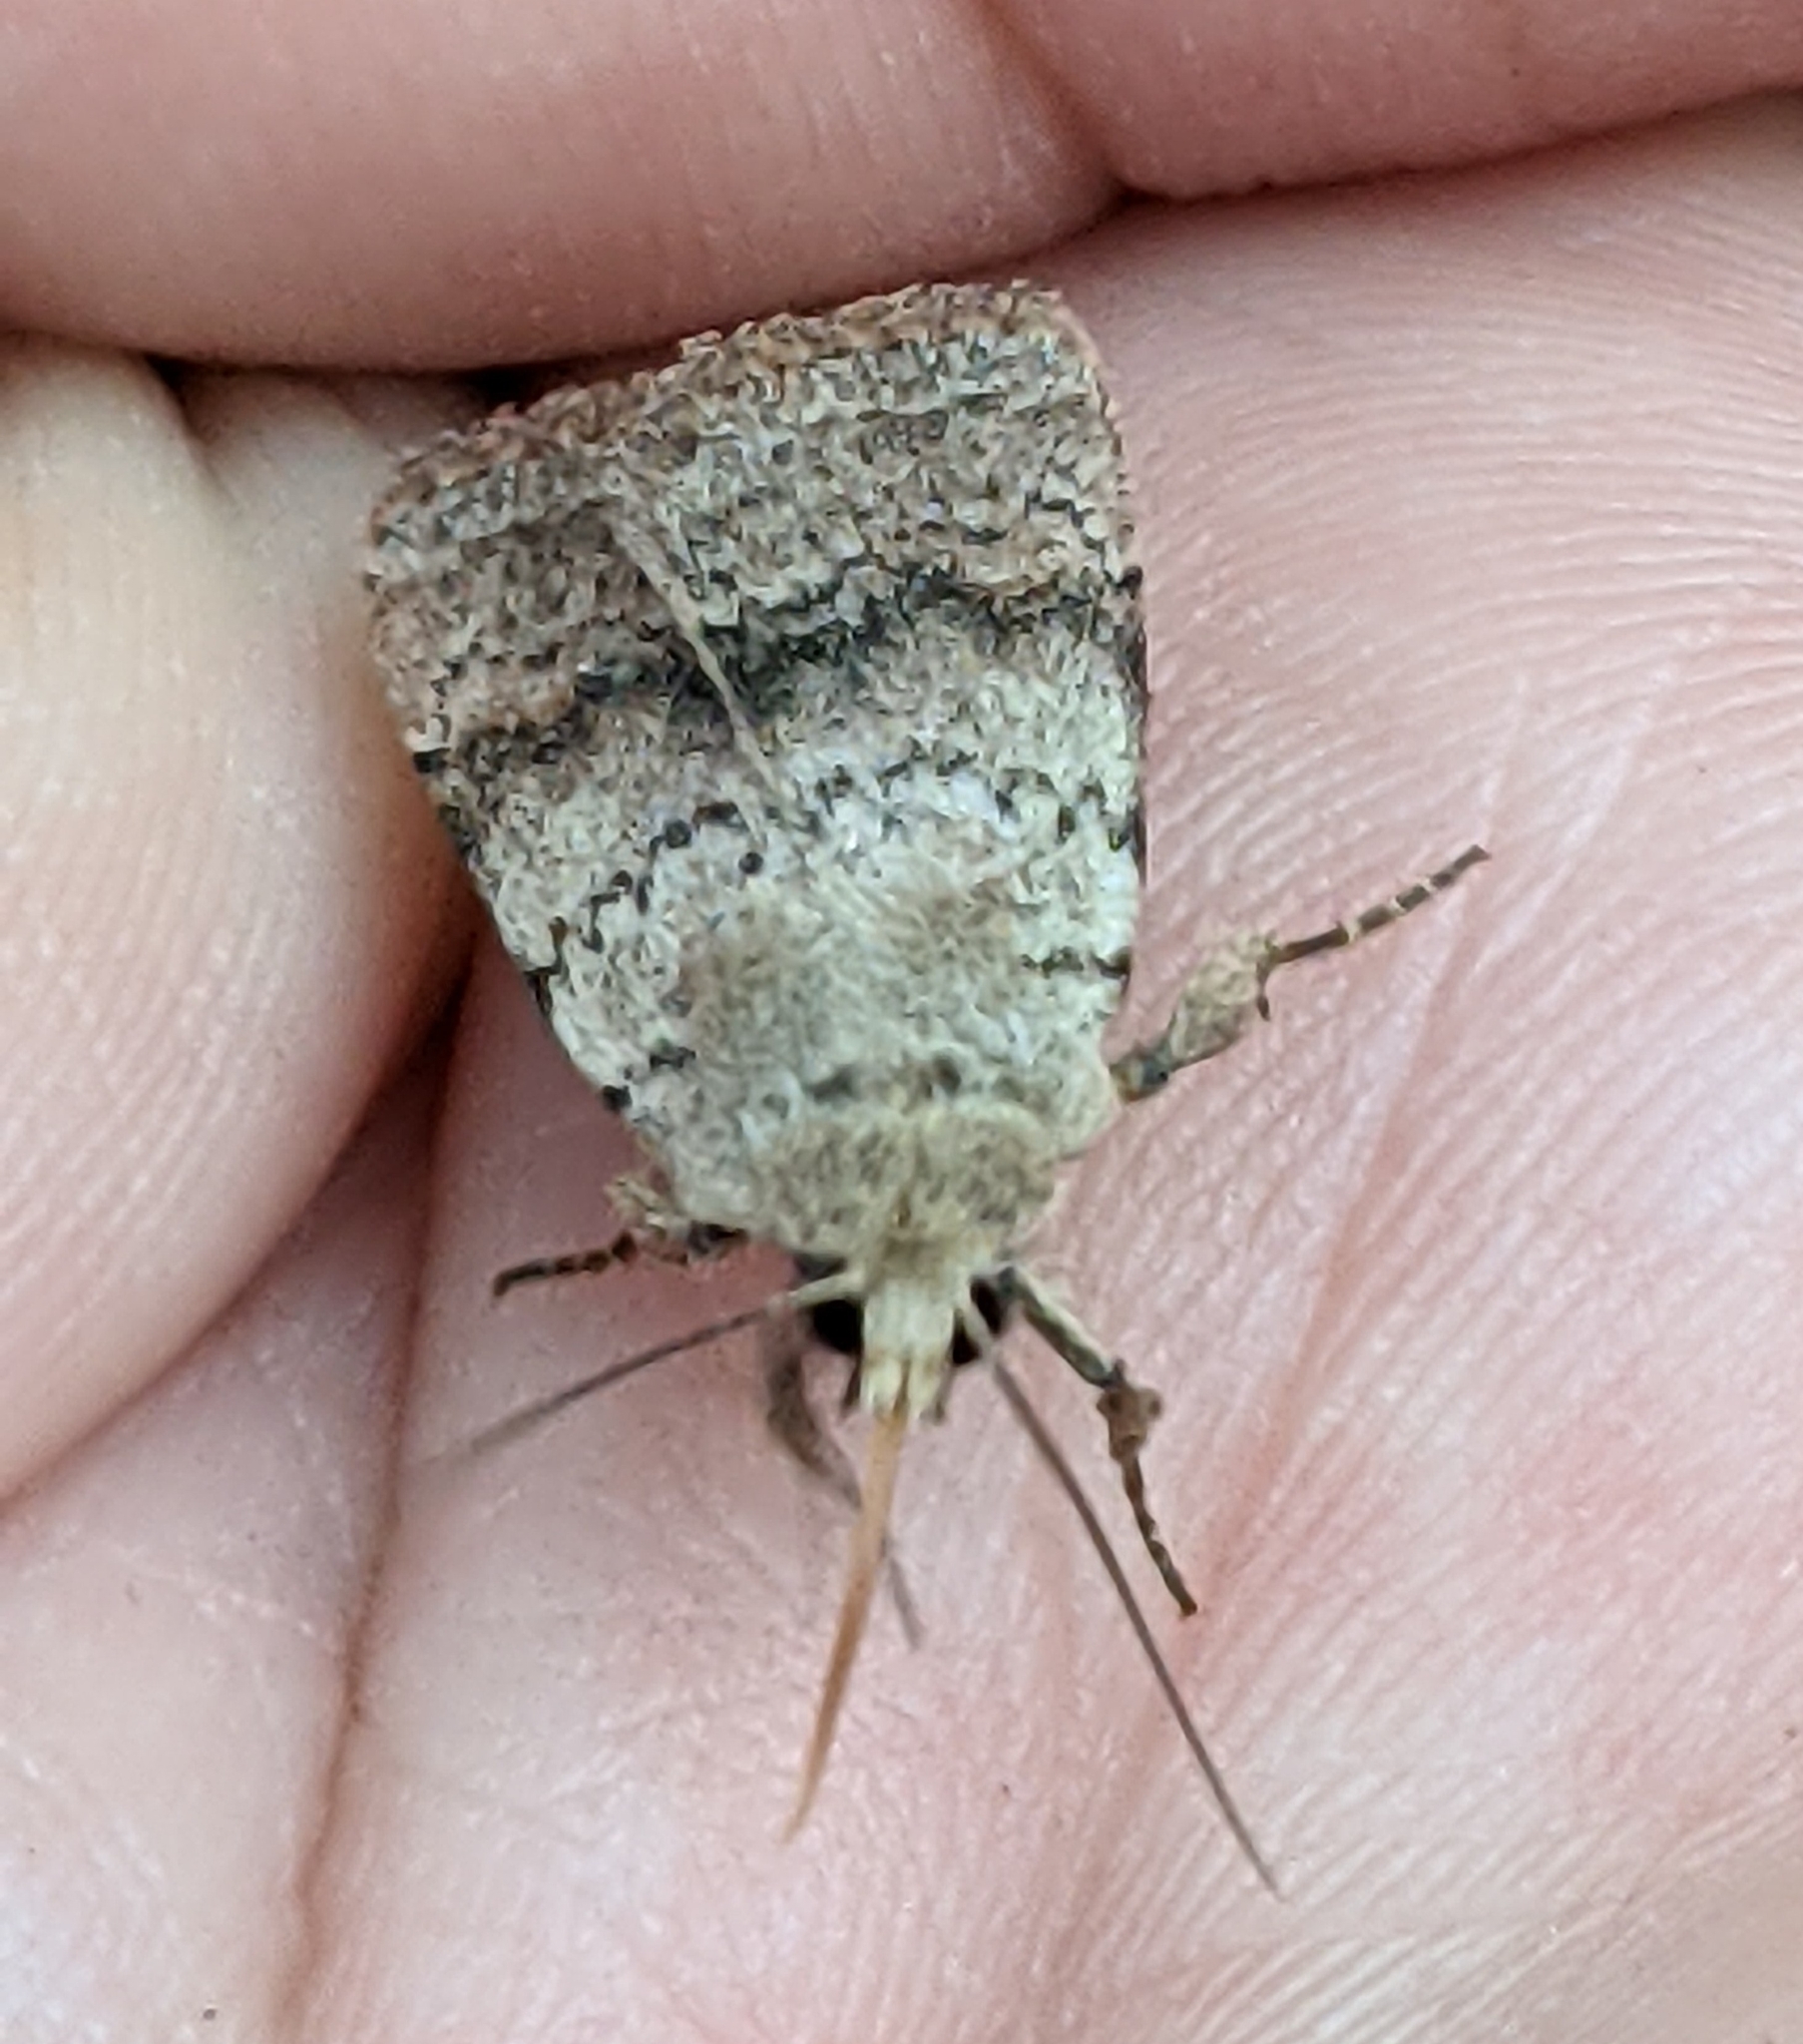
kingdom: Animalia
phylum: Arthropoda
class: Insecta
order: Lepidoptera
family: Noctuidae
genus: Homorthodes
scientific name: Homorthodes fractura
